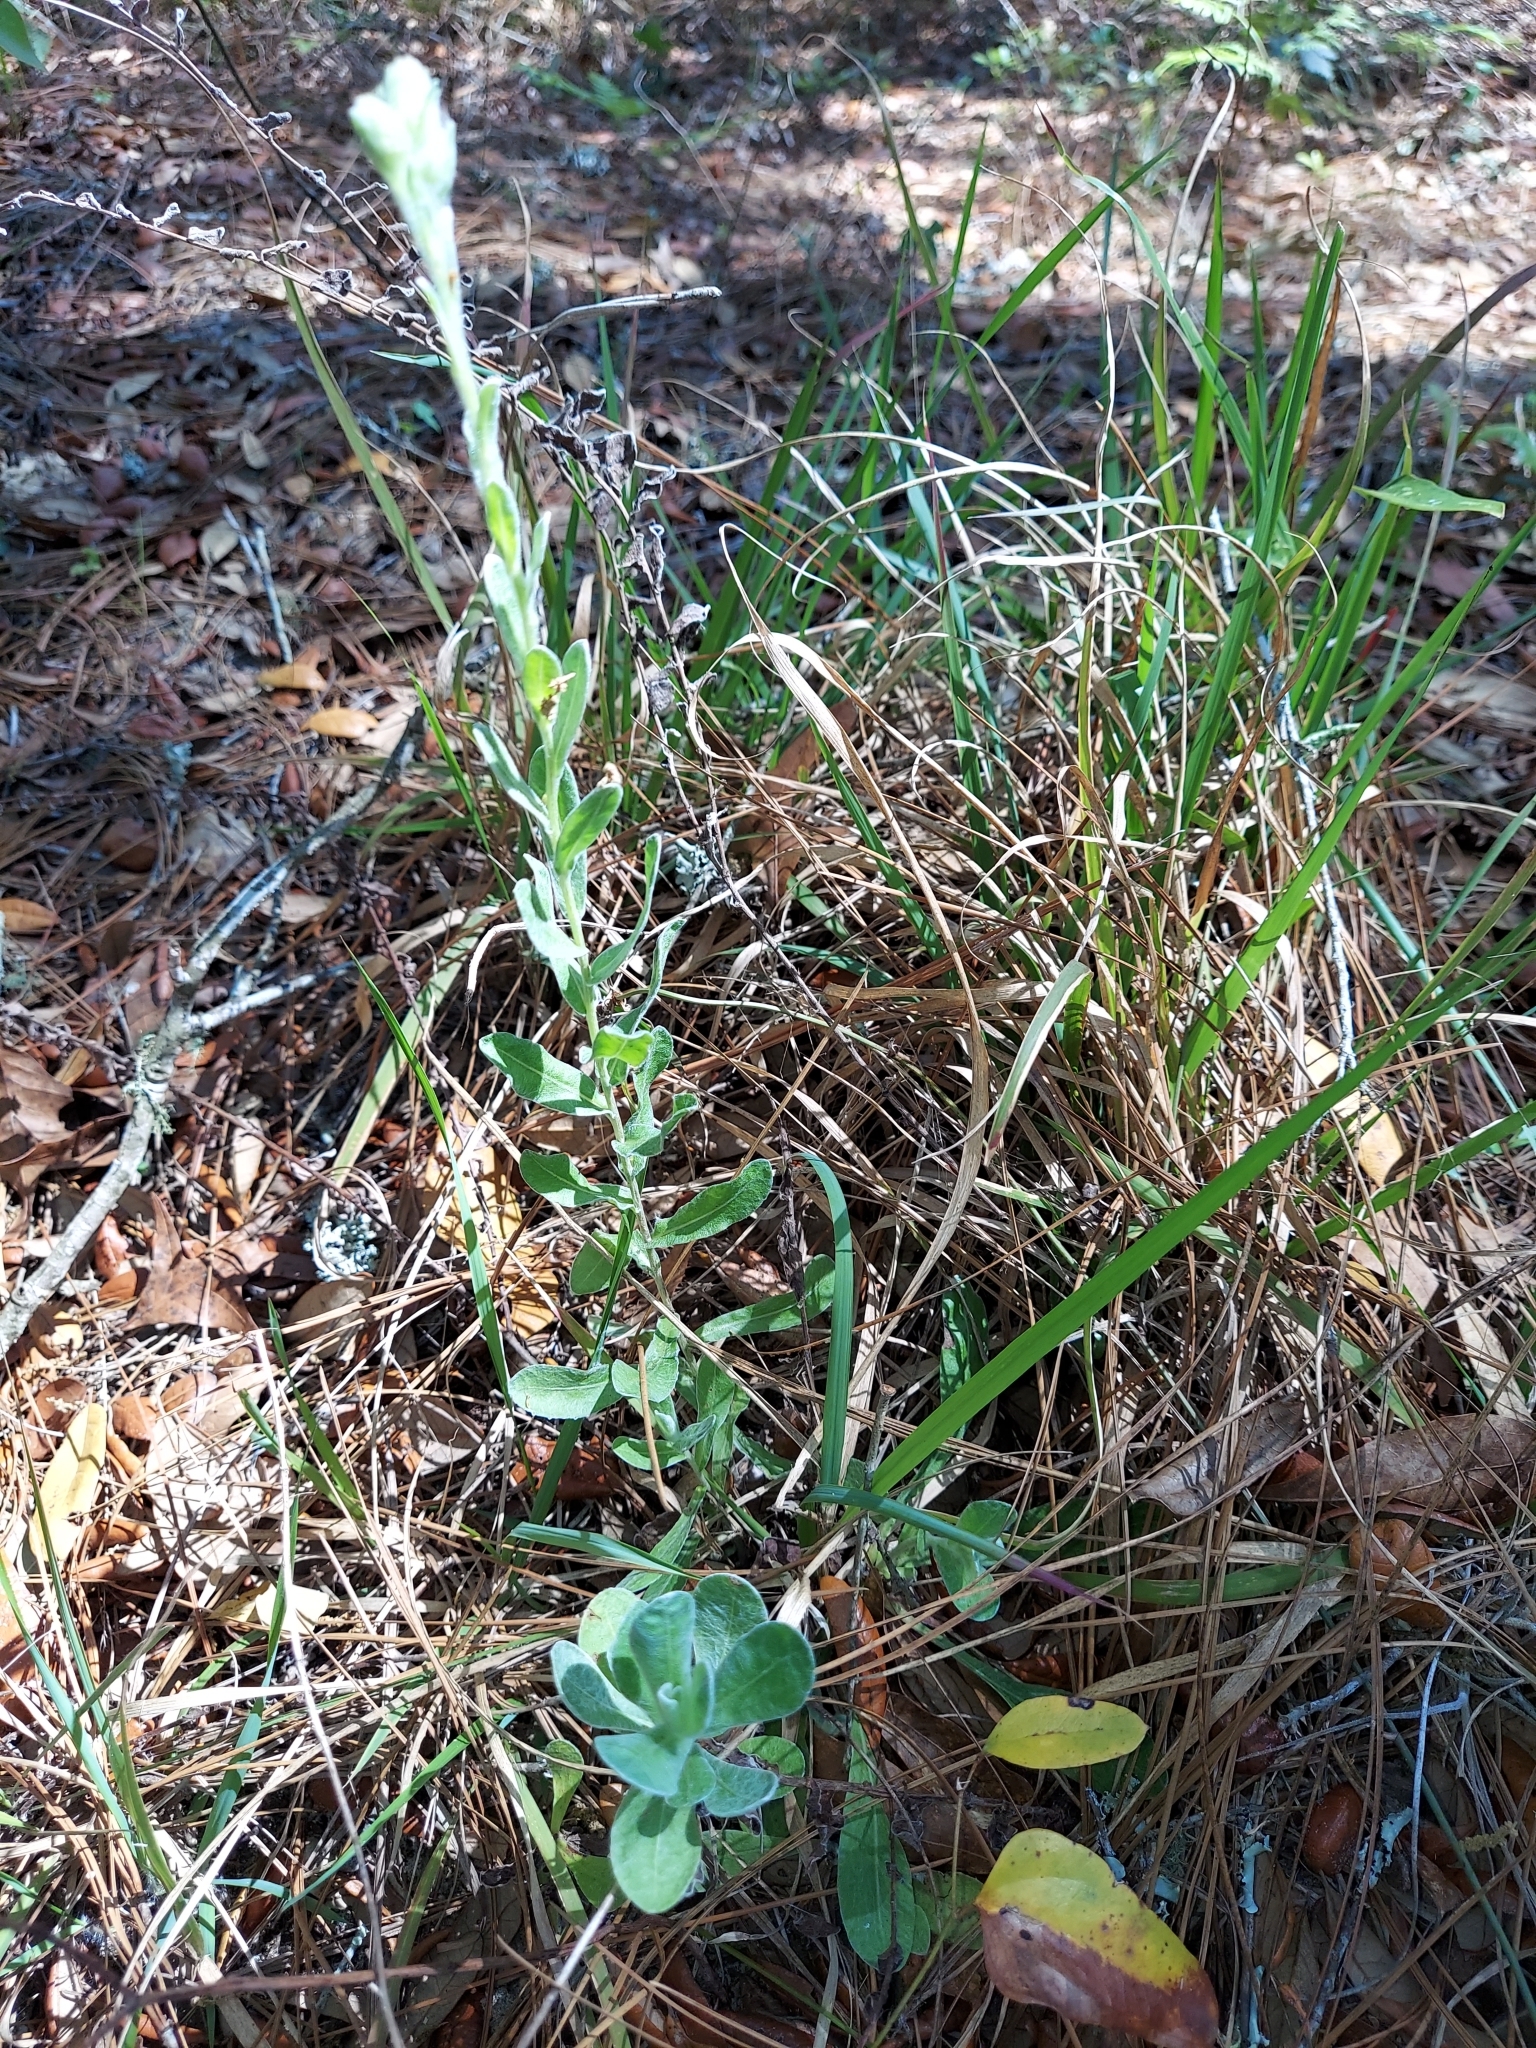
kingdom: Plantae
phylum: Tracheophyta
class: Magnoliopsida
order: Asterales
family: Asteraceae
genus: Chrysopsis
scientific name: Chrysopsis latisquamea
